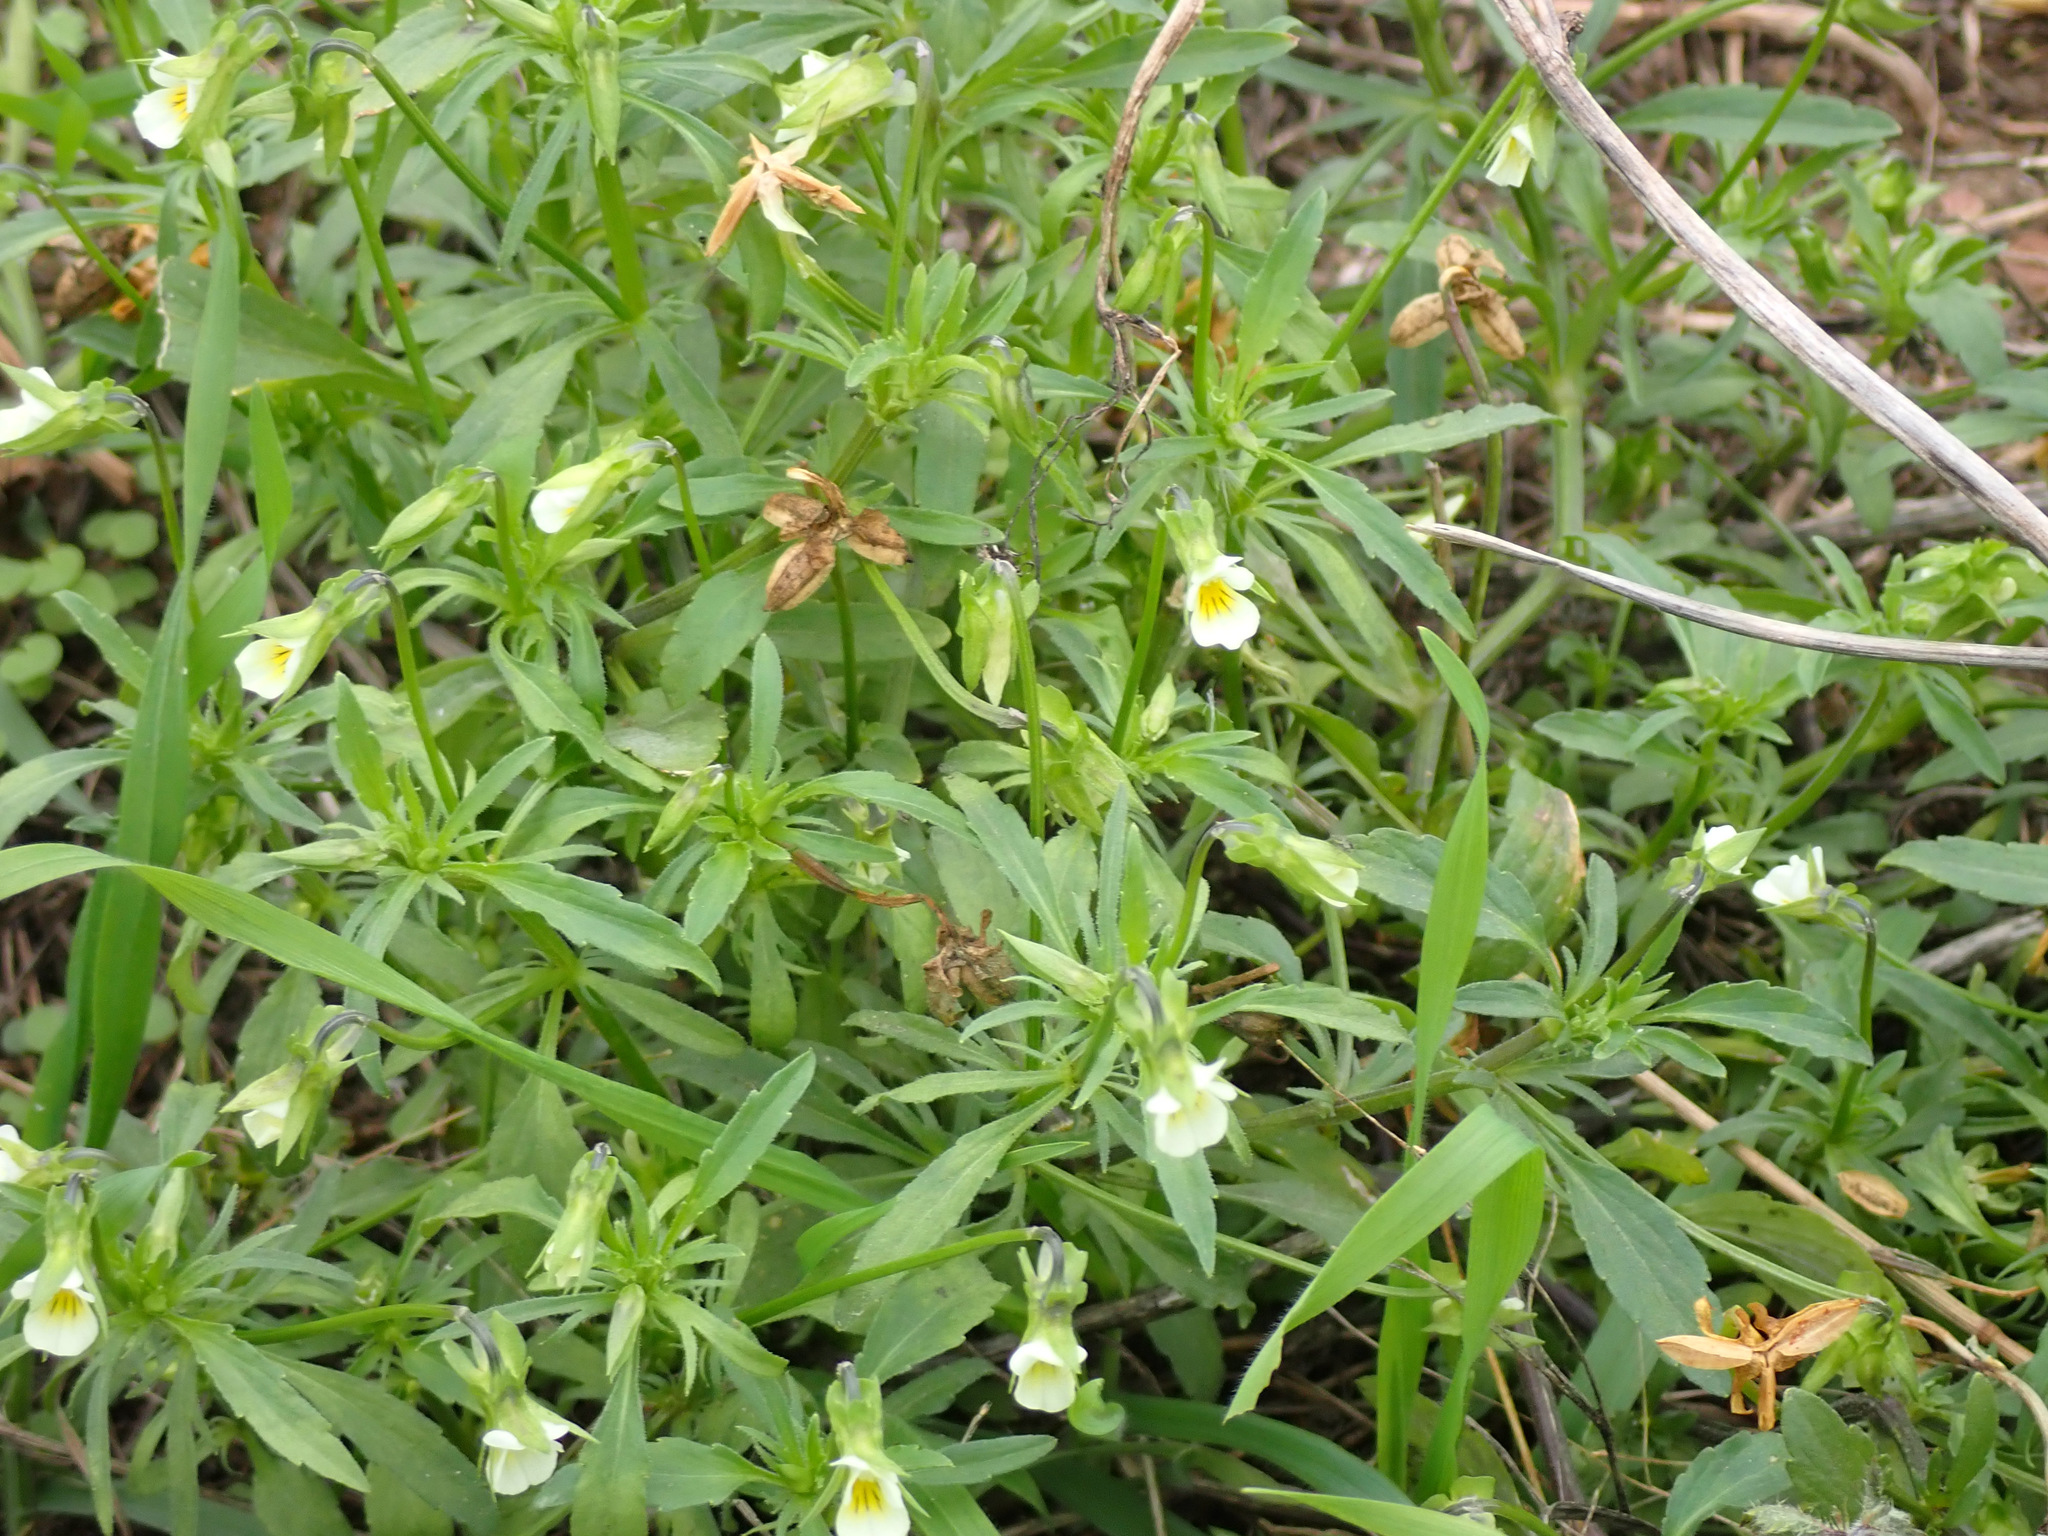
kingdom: Plantae
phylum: Tracheophyta
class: Magnoliopsida
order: Malpighiales
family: Violaceae
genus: Viola
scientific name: Viola arvensis
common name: Field pansy
